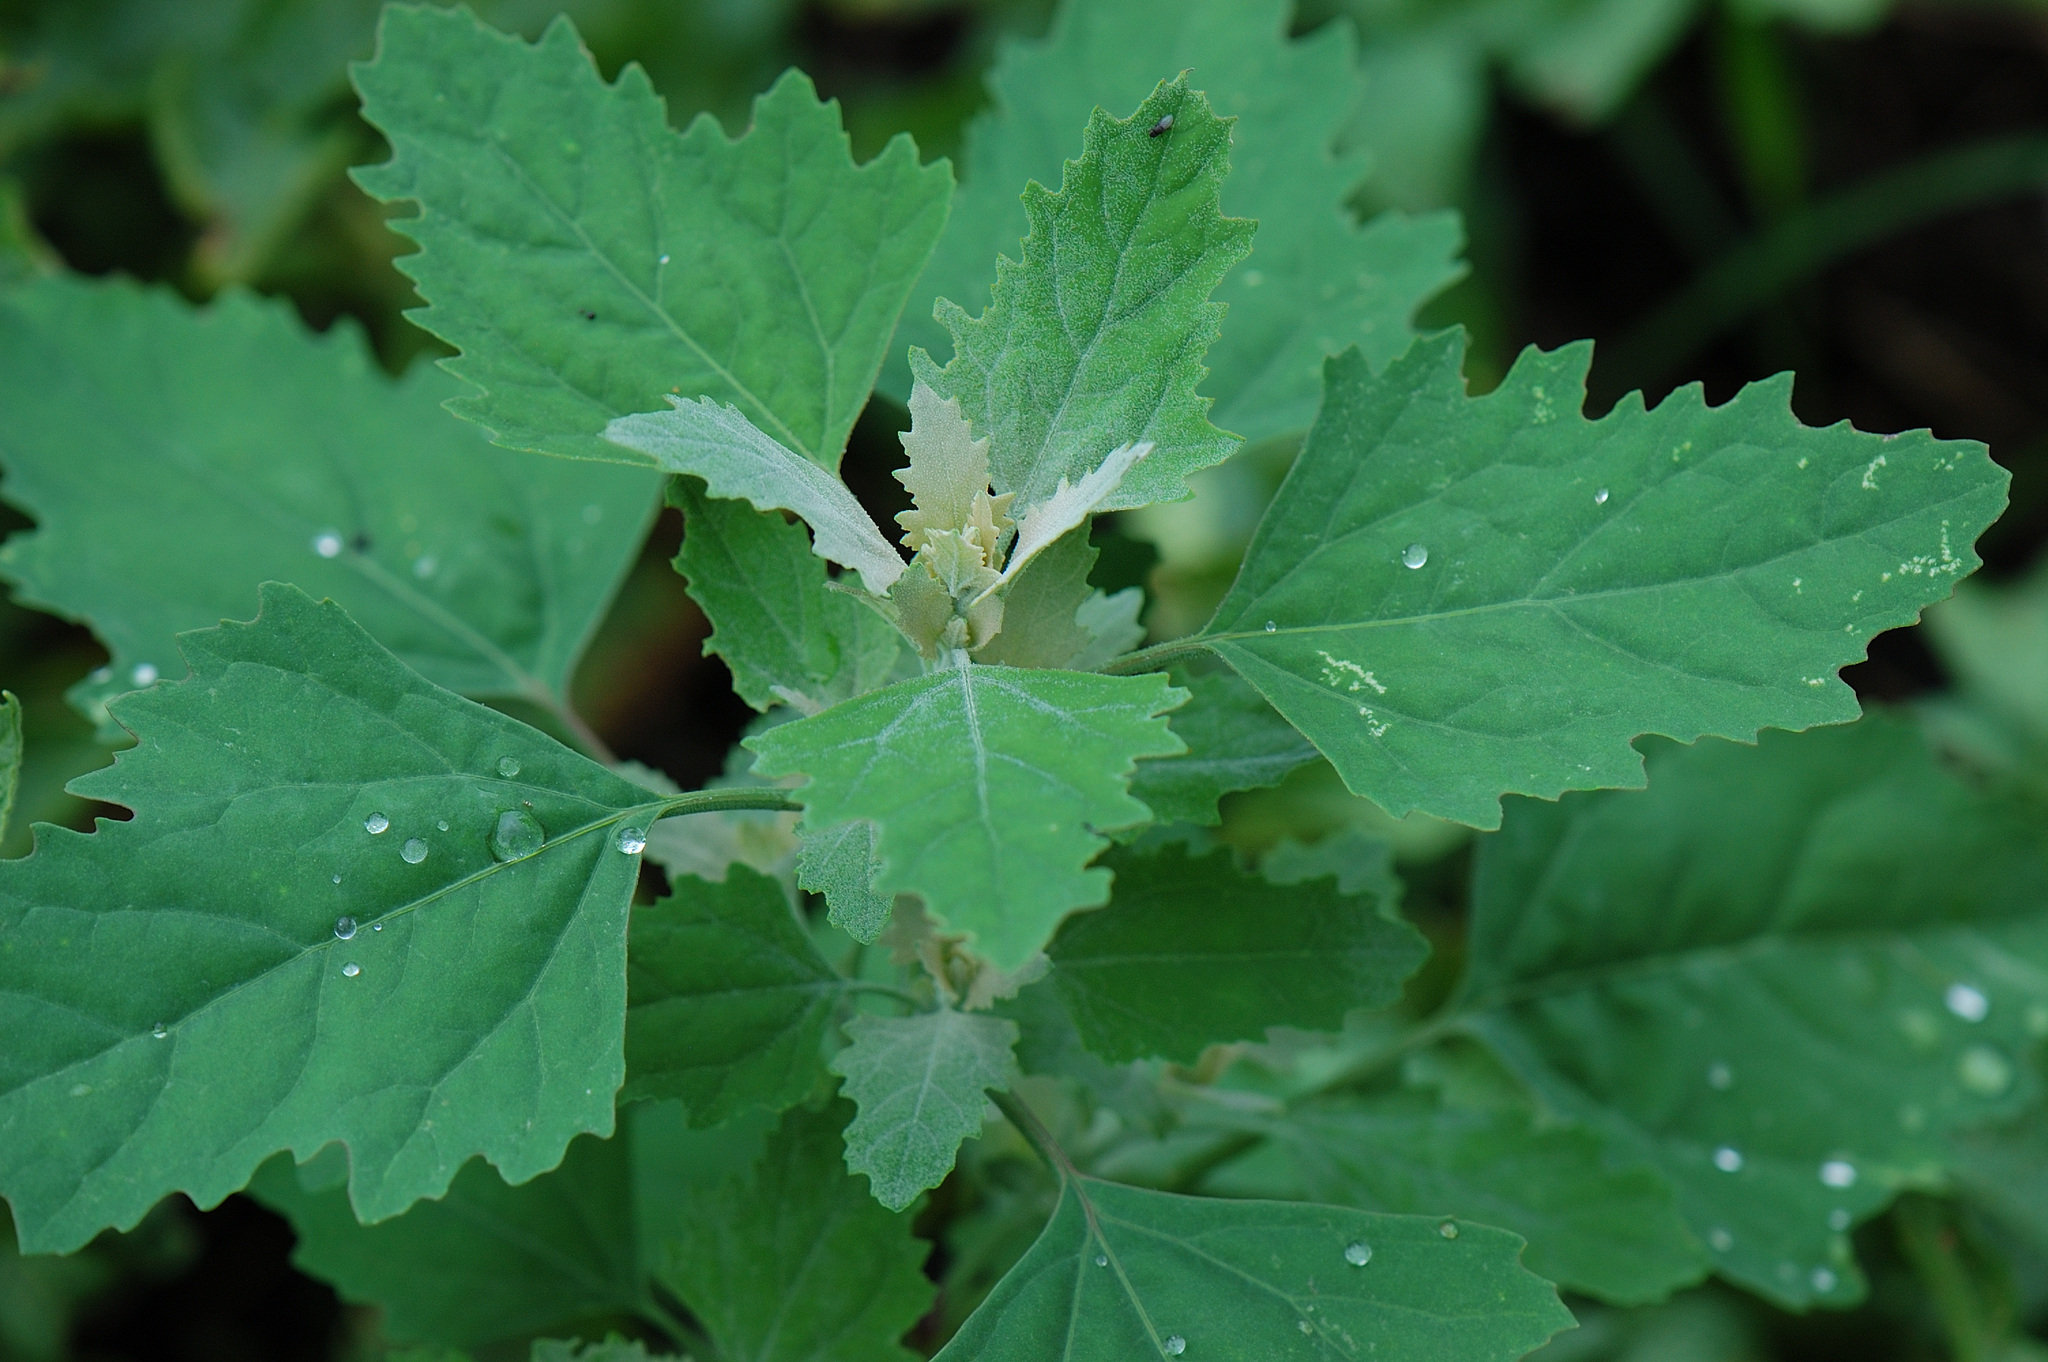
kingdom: Plantae
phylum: Tracheophyta
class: Magnoliopsida
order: Caryophyllales
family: Amaranthaceae
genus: Chenopodium
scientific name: Chenopodium album
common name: Fat-hen
